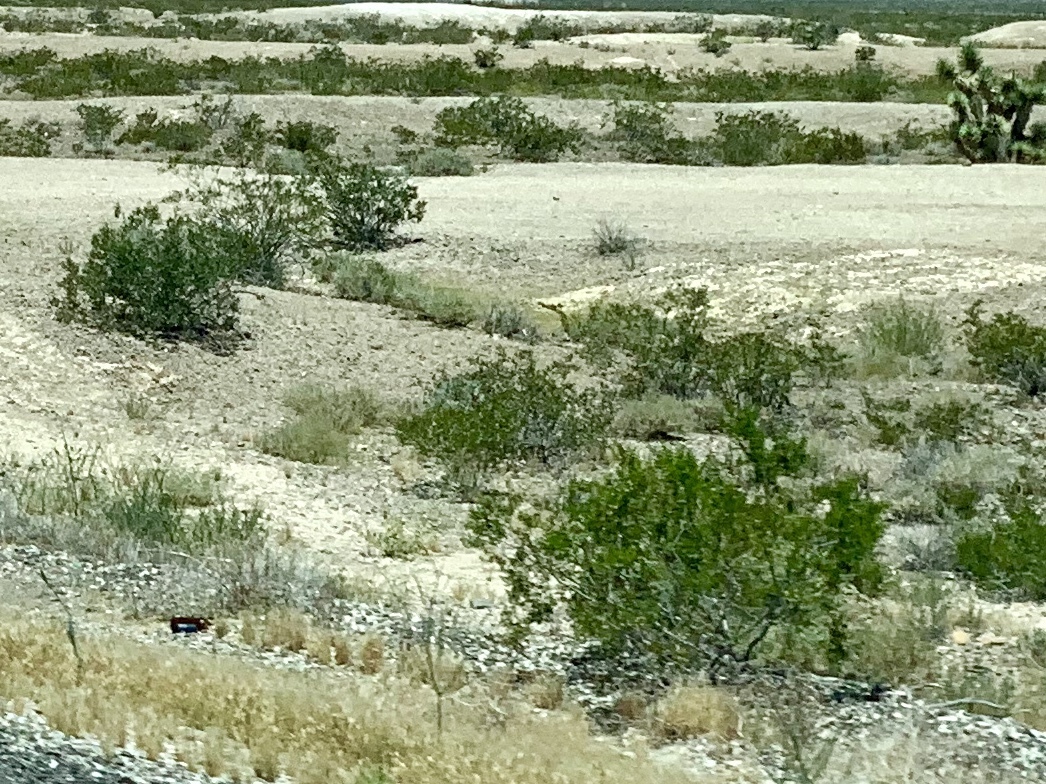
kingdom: Plantae
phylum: Tracheophyta
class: Magnoliopsida
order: Zygophyllales
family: Zygophyllaceae
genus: Larrea
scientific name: Larrea tridentata
